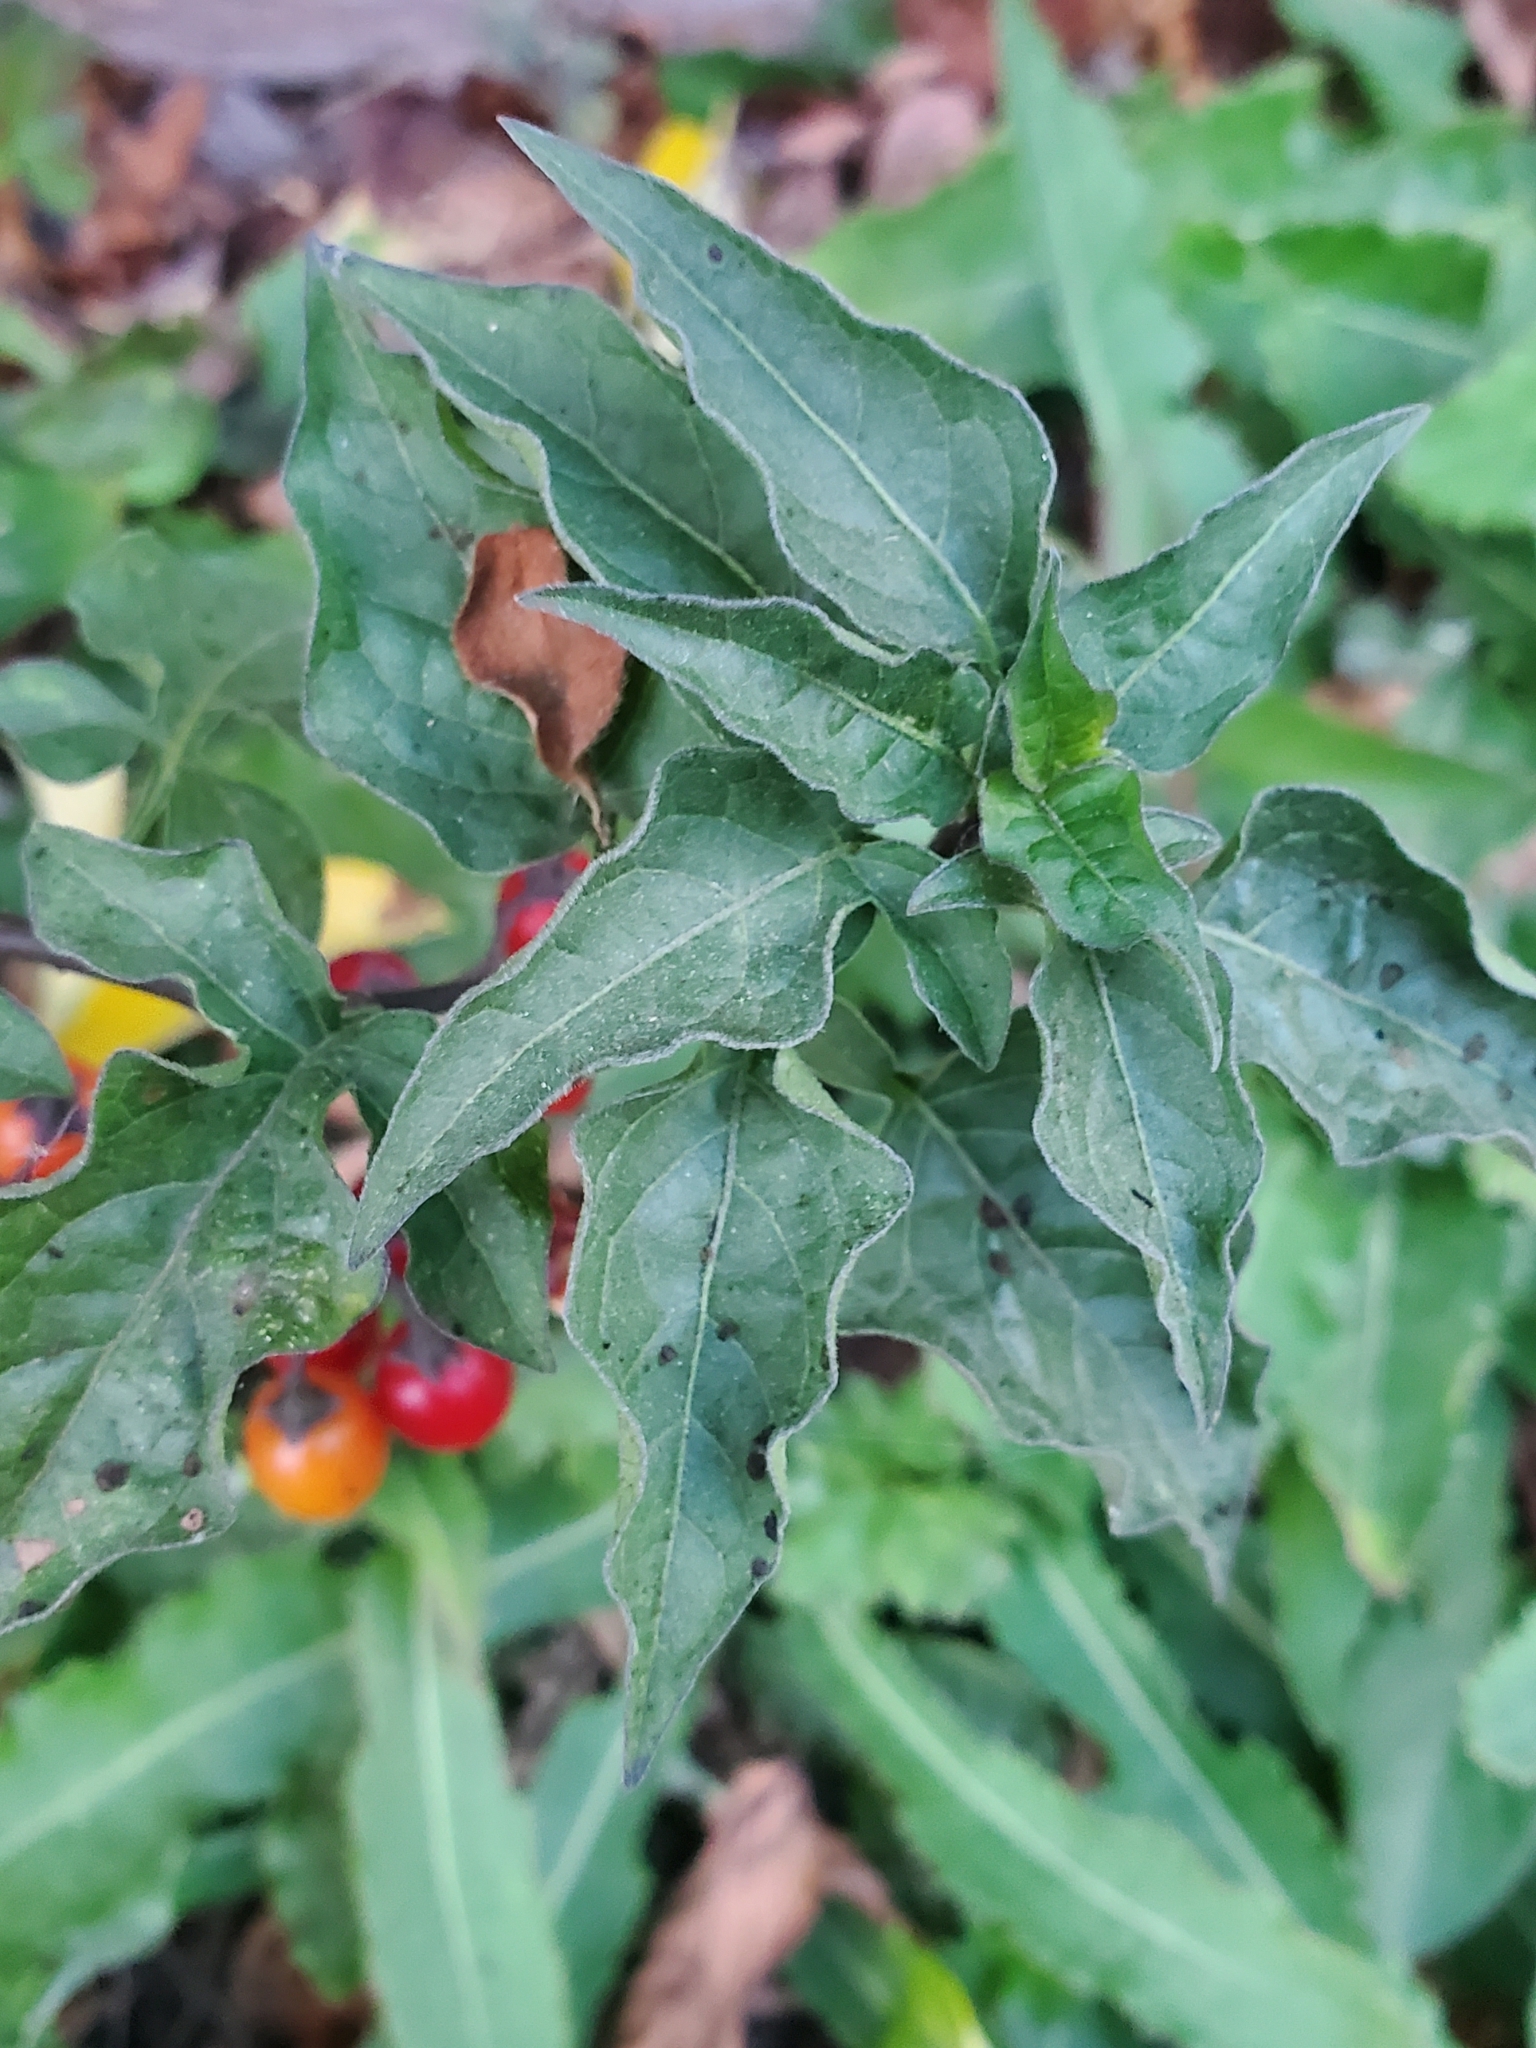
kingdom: Plantae
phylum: Tracheophyta
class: Magnoliopsida
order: Solanales
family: Solanaceae
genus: Solanum
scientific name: Solanum dulcamara
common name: Climbing nightshade
